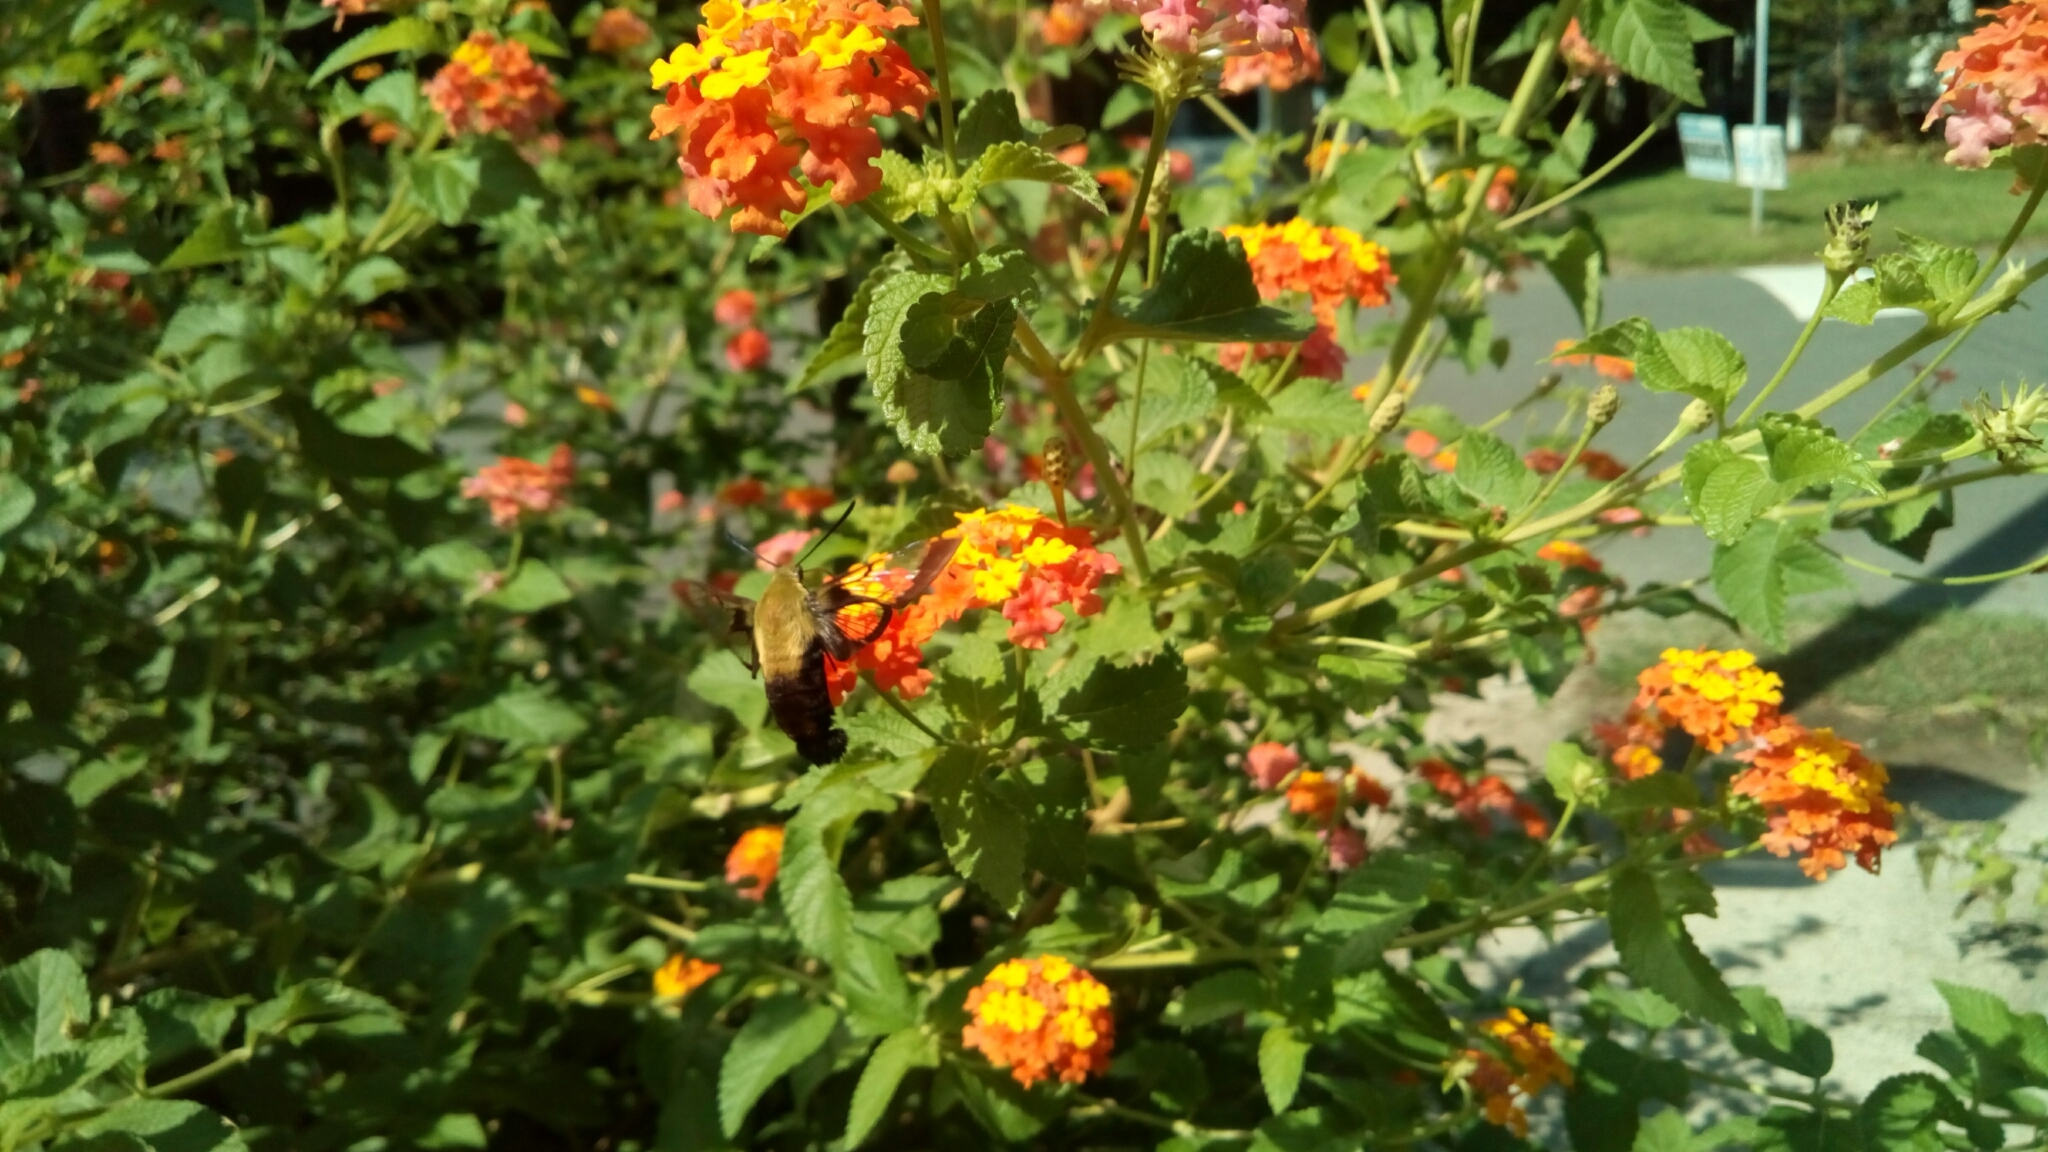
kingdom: Animalia
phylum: Arthropoda
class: Insecta
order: Lepidoptera
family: Sphingidae
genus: Hemaris
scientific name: Hemaris diffinis
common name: Bumblebee moth
